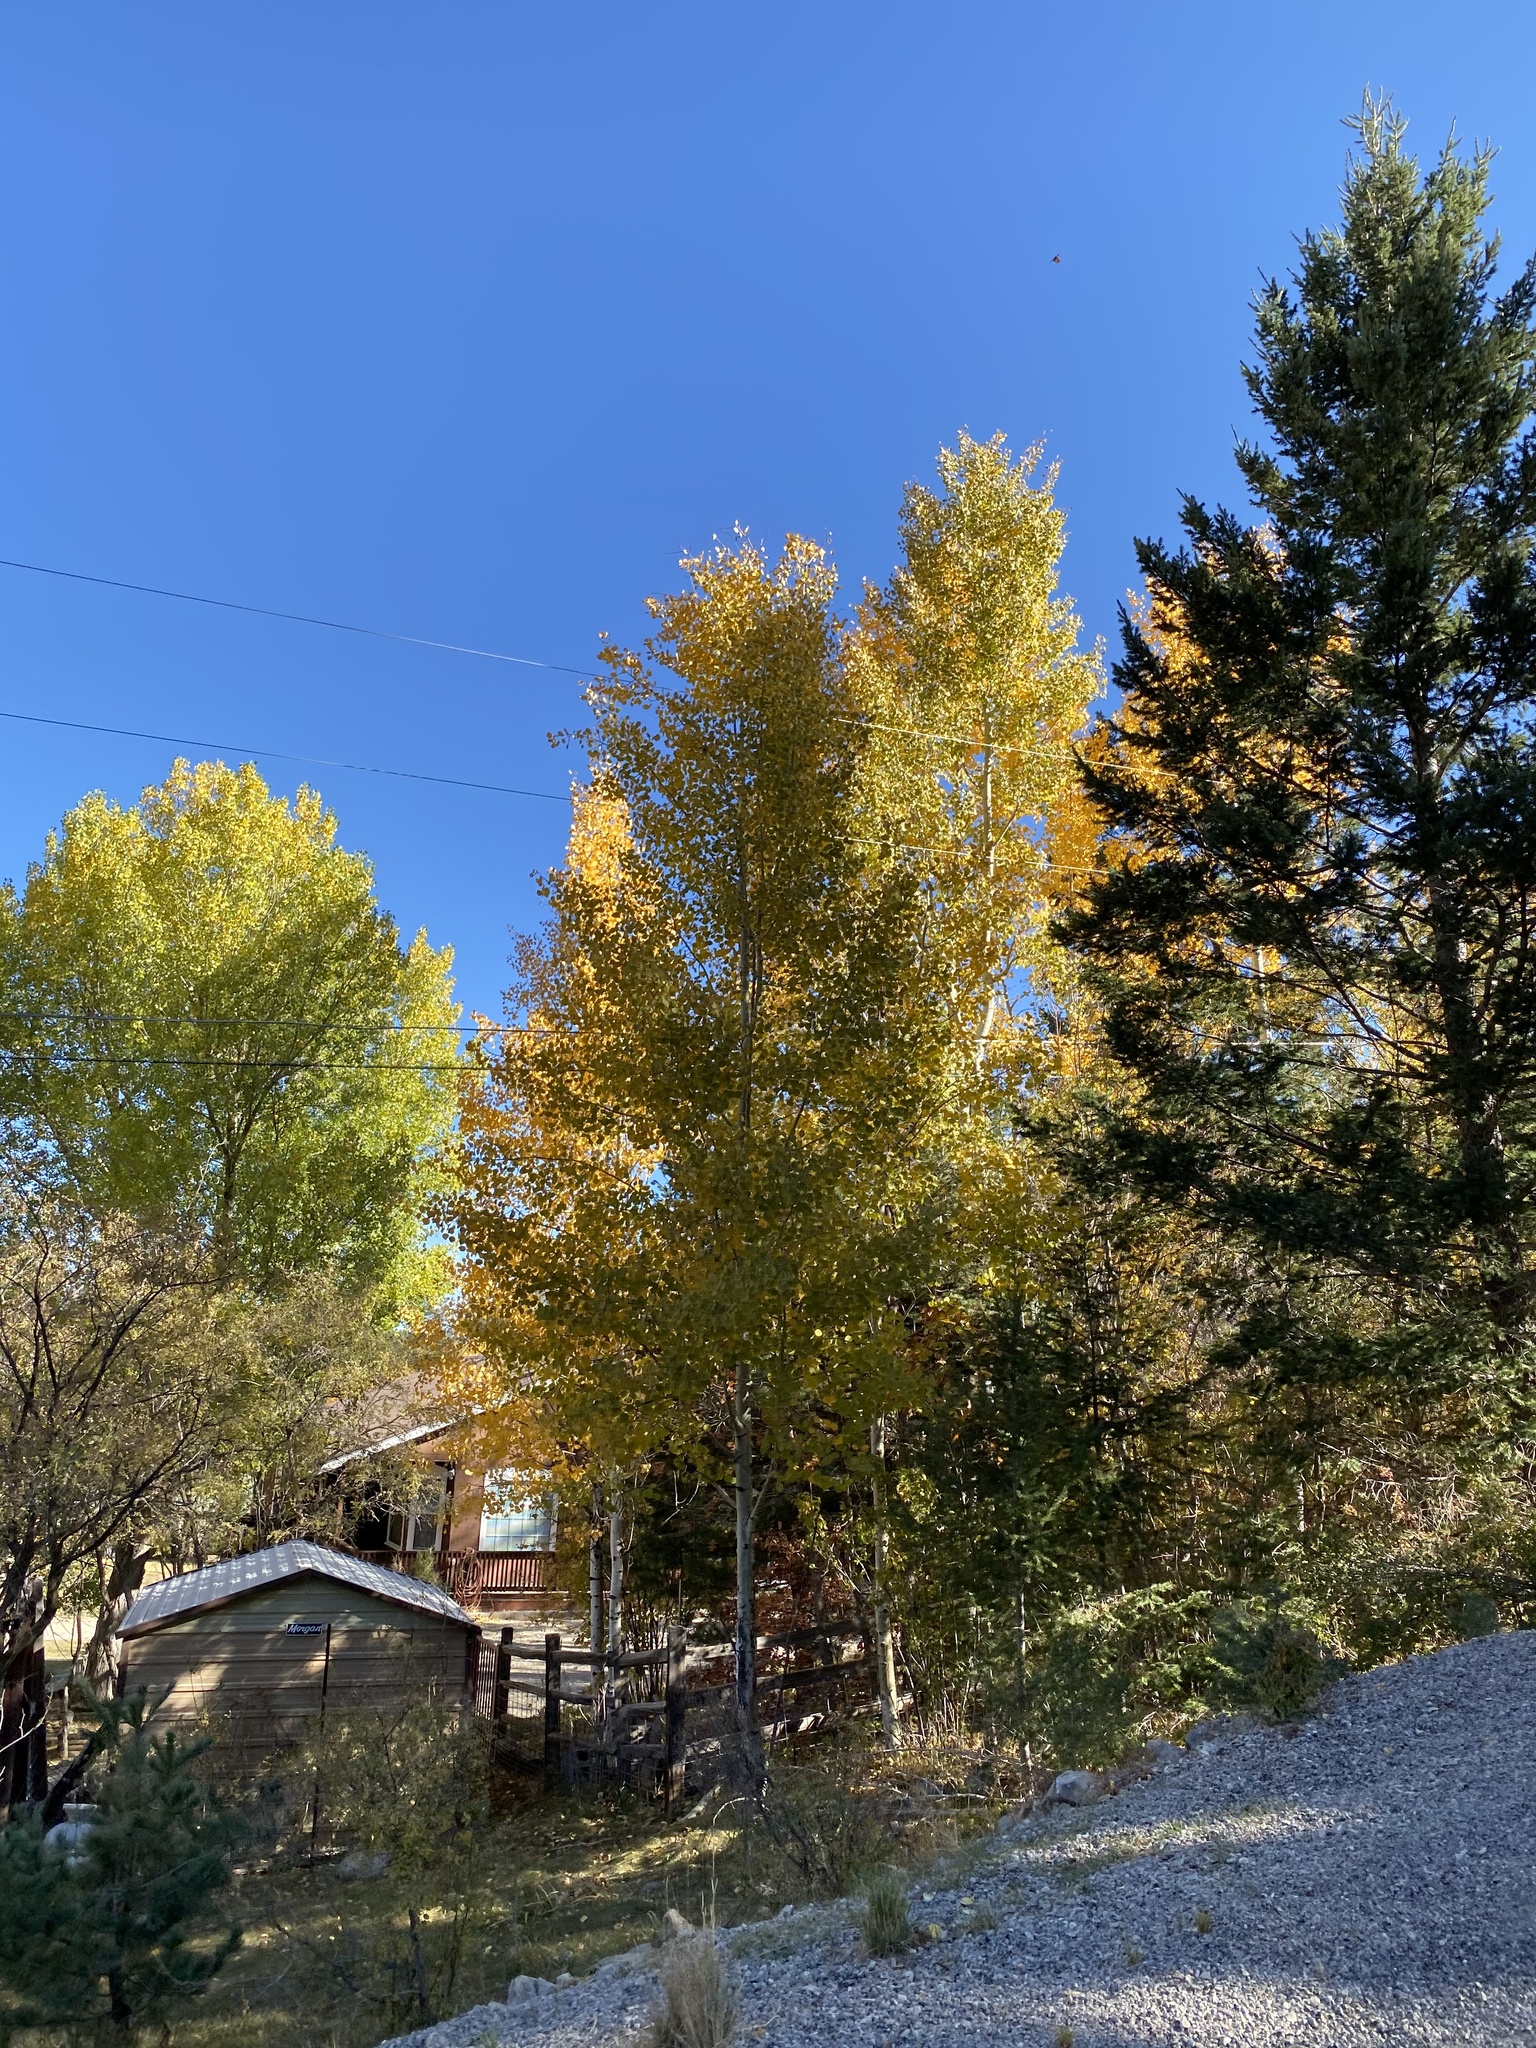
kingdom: Plantae
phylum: Tracheophyta
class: Magnoliopsida
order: Malpighiales
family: Salicaceae
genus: Populus
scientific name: Populus tremuloides
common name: Quaking aspen
